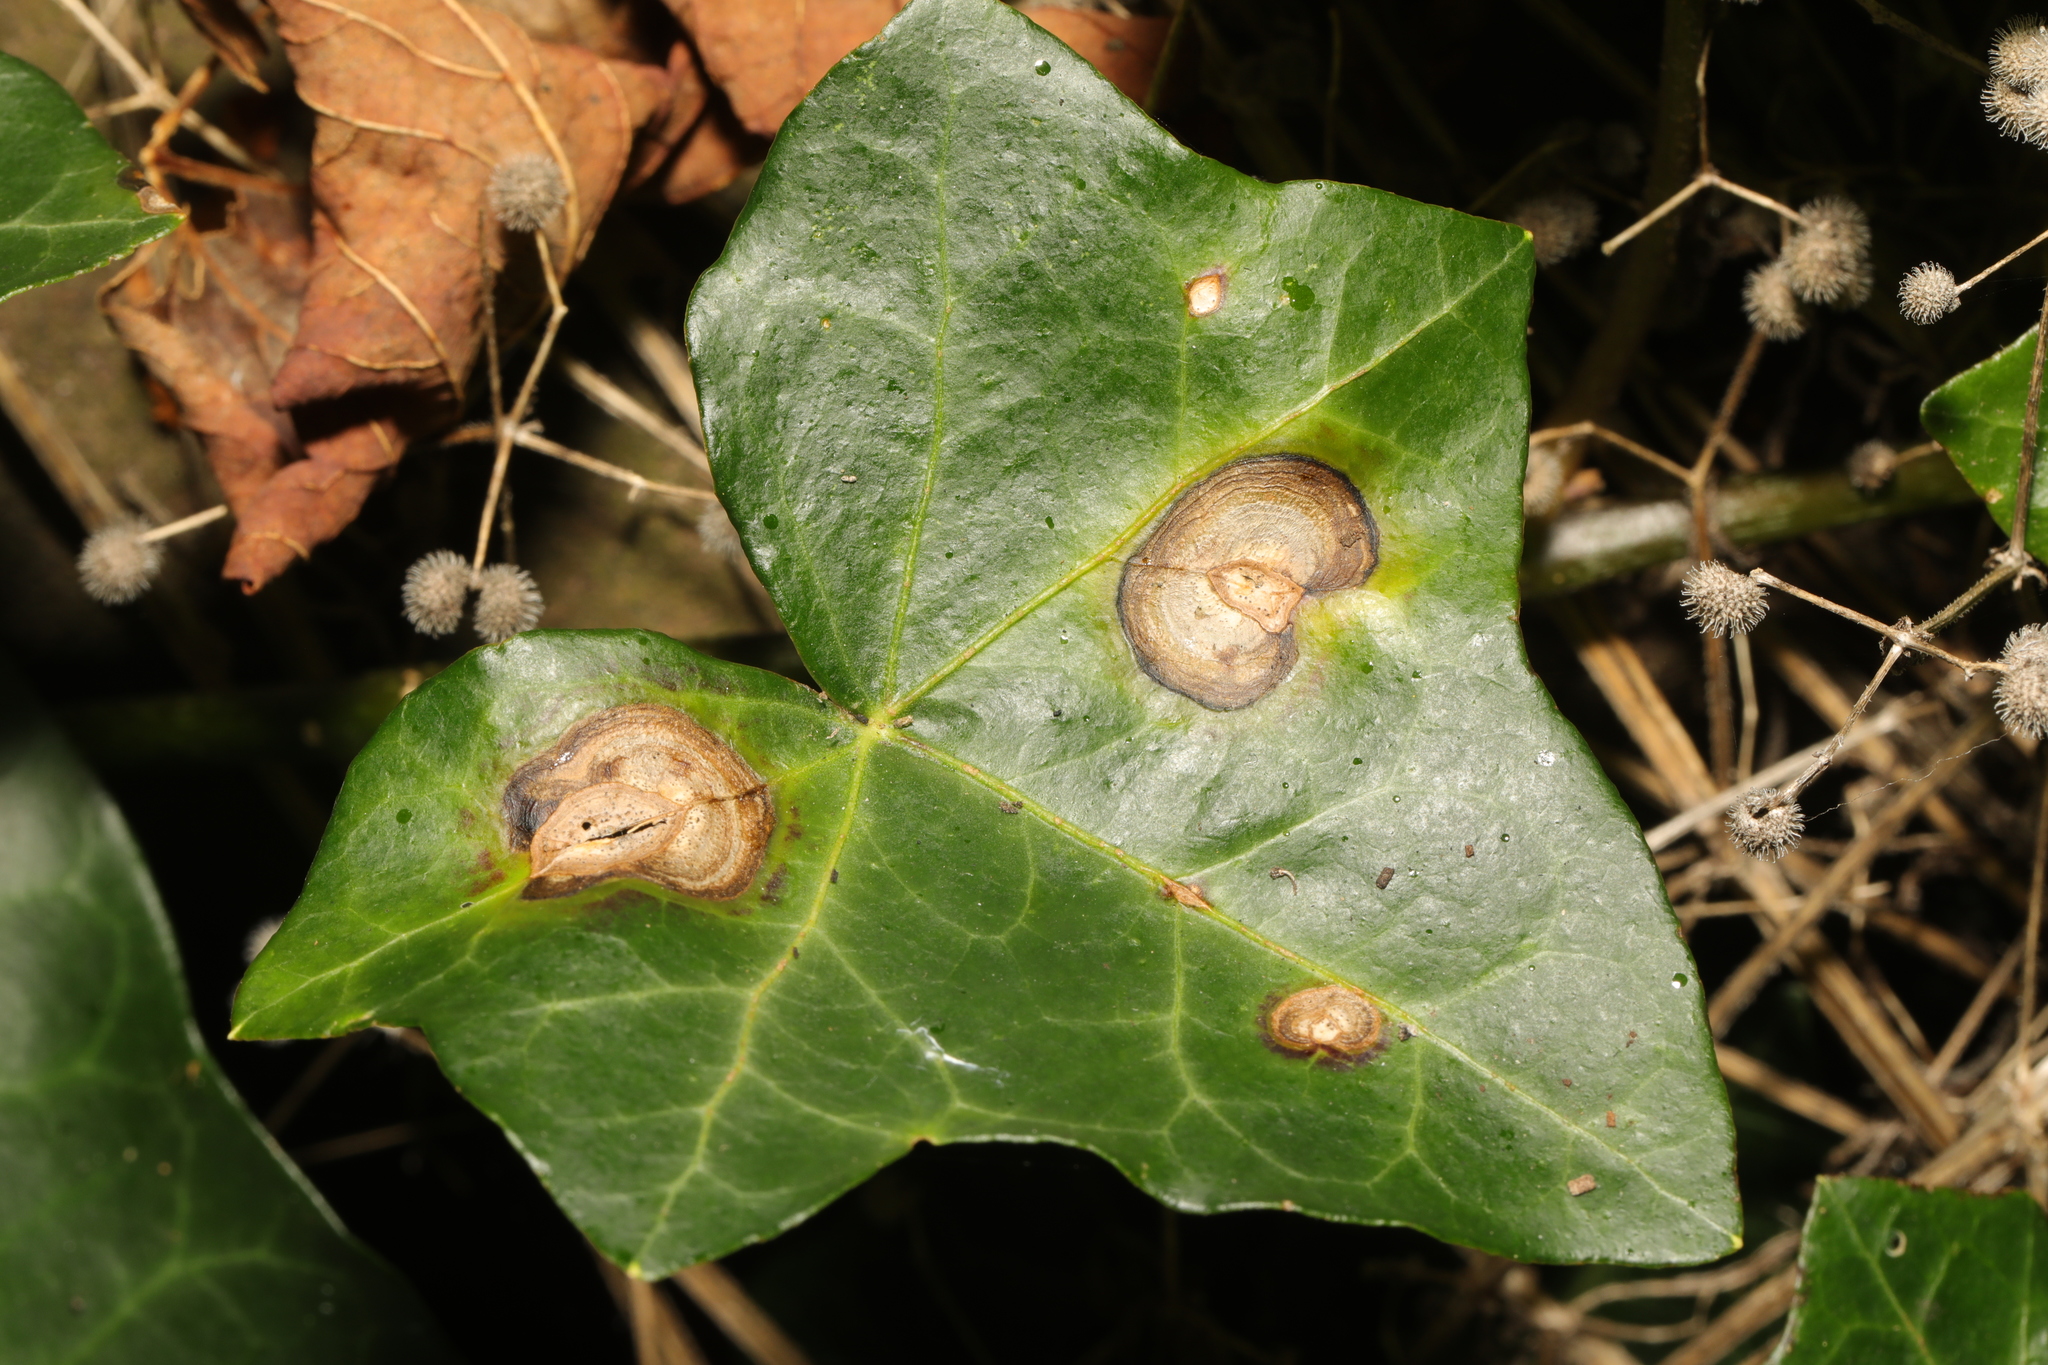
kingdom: Fungi
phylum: Ascomycota
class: Dothideomycetes
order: Pleosporales
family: Didymellaceae
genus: Boeremia
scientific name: Boeremia hedericola
